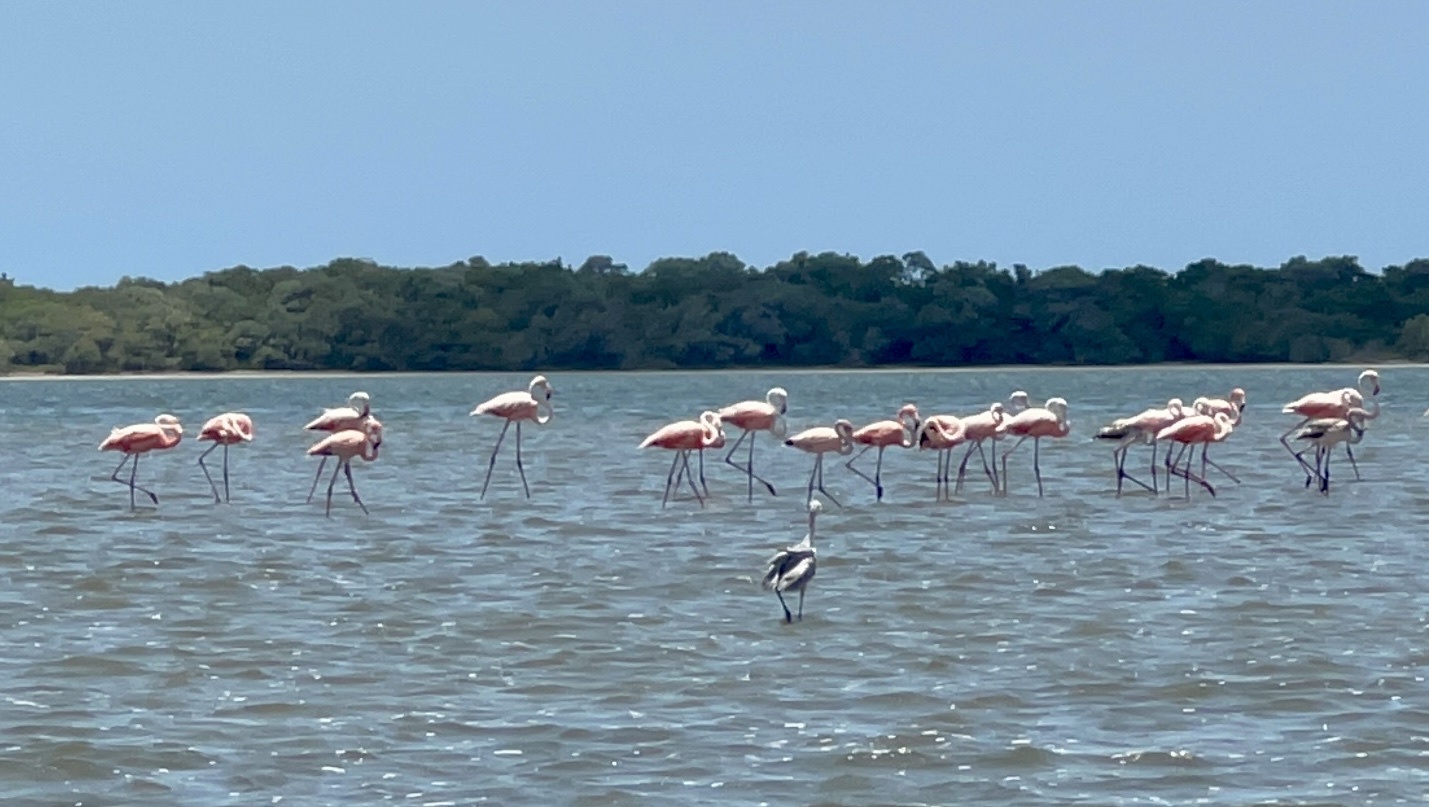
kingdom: Animalia
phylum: Chordata
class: Aves
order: Phoenicopteriformes
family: Phoenicopteridae
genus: Phoenicopterus
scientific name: Phoenicopterus ruber
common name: American flamingo
